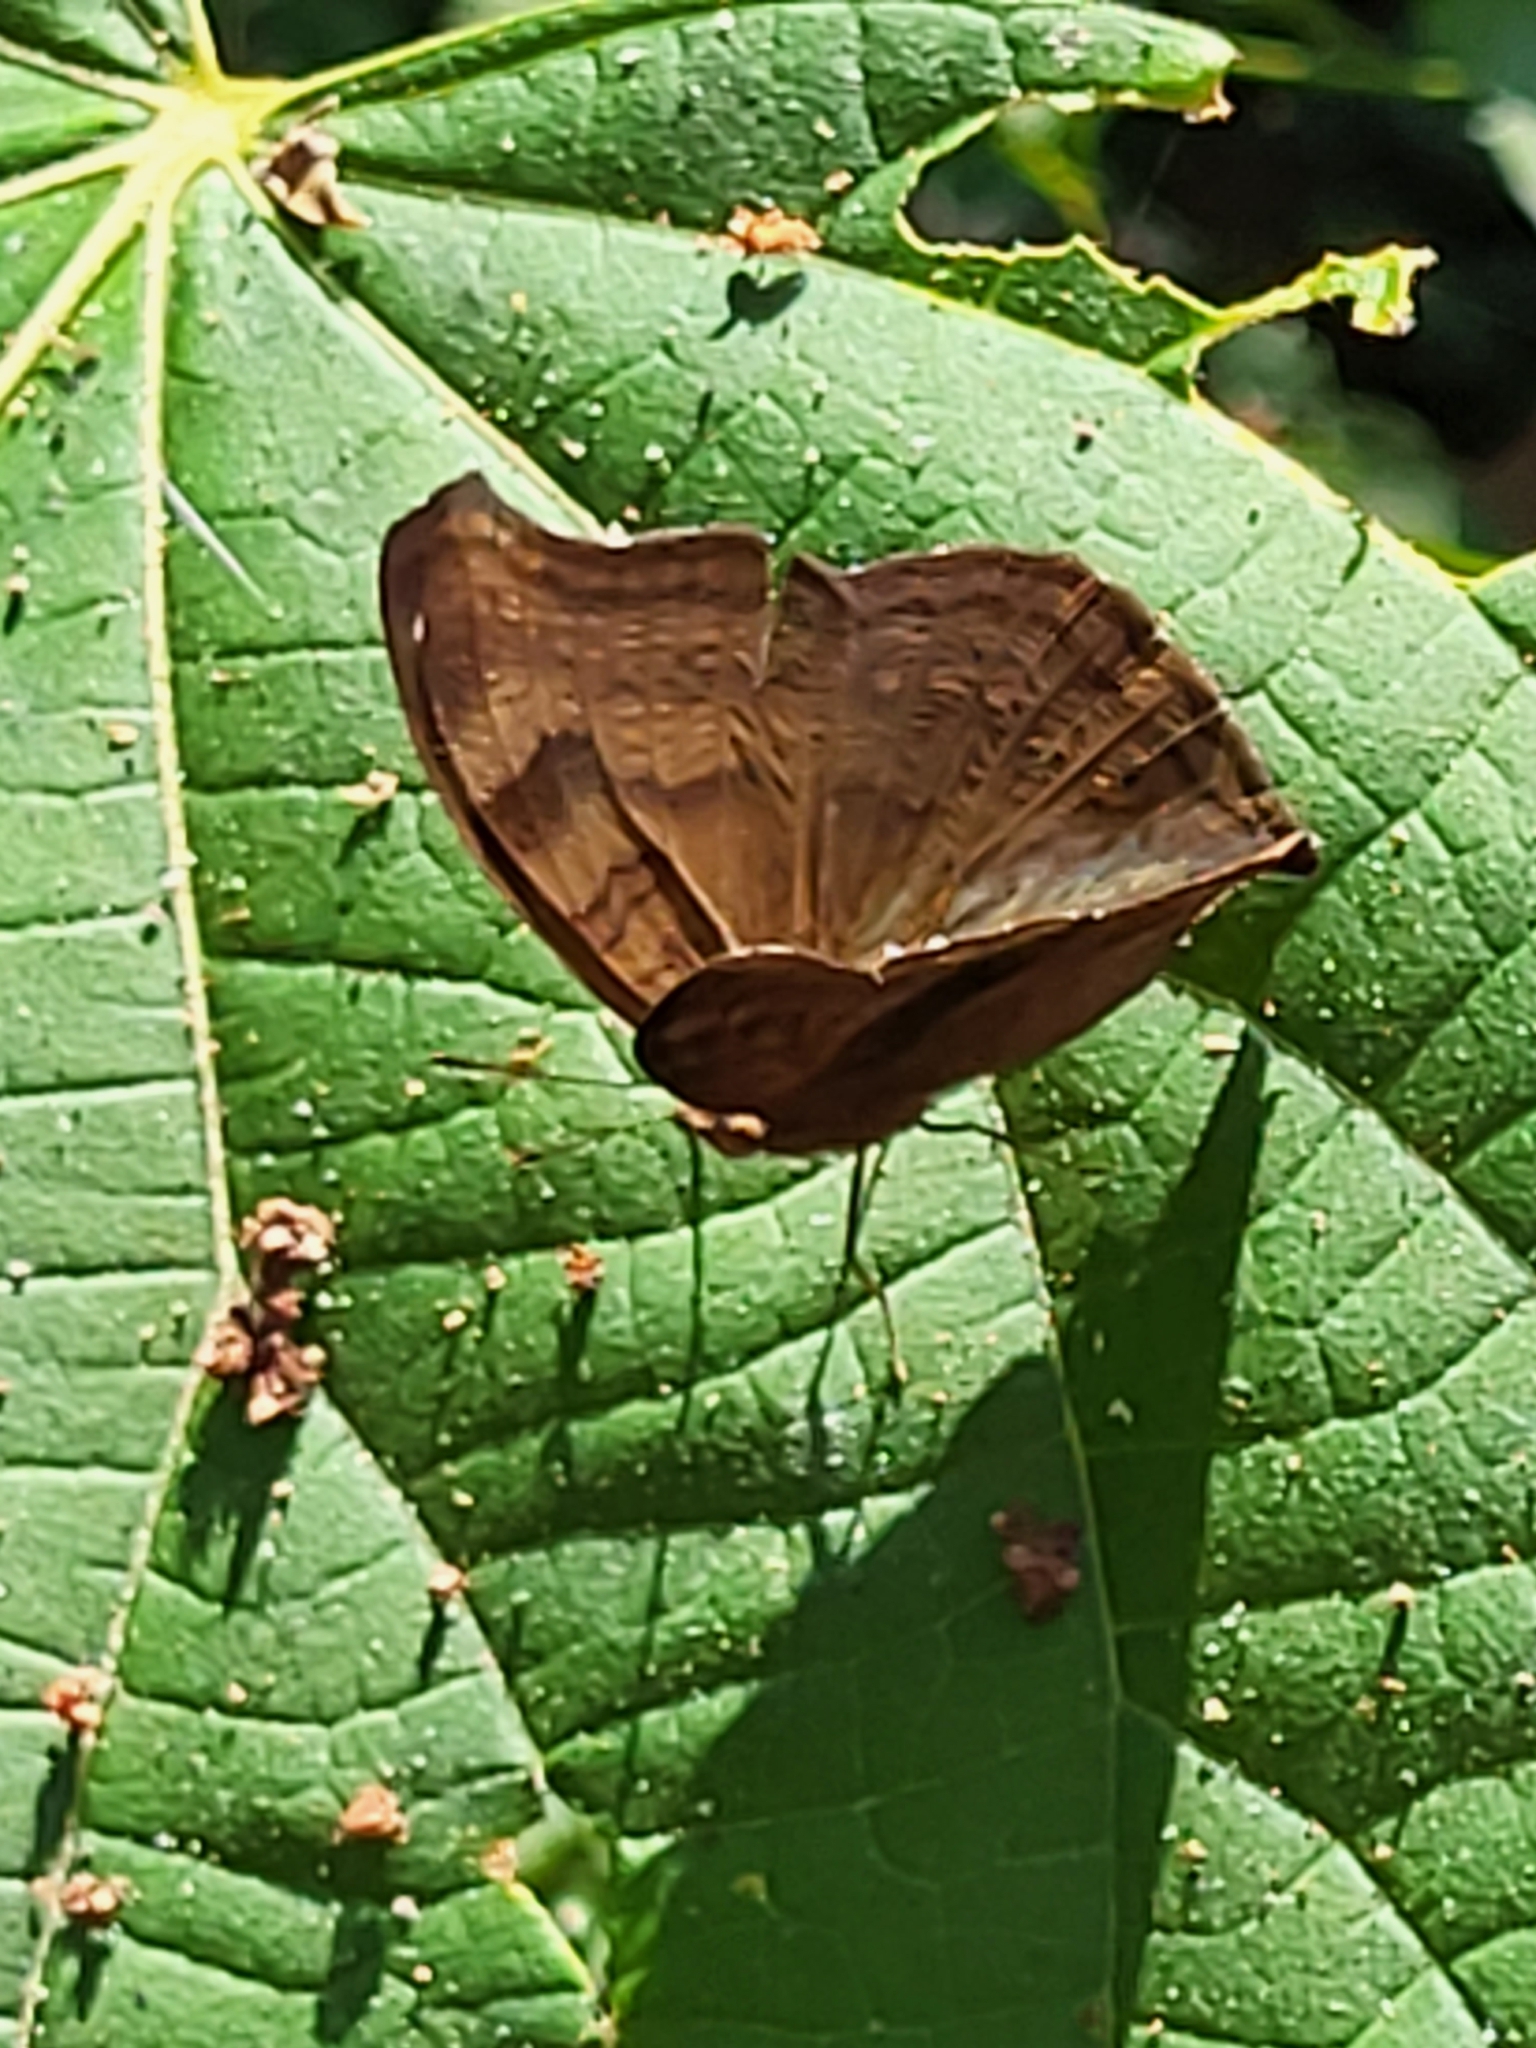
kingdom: Animalia
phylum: Arthropoda
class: Insecta
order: Lepidoptera
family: Nymphalidae
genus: Junonia
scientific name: Junonia iphita
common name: Chocolate pansy
